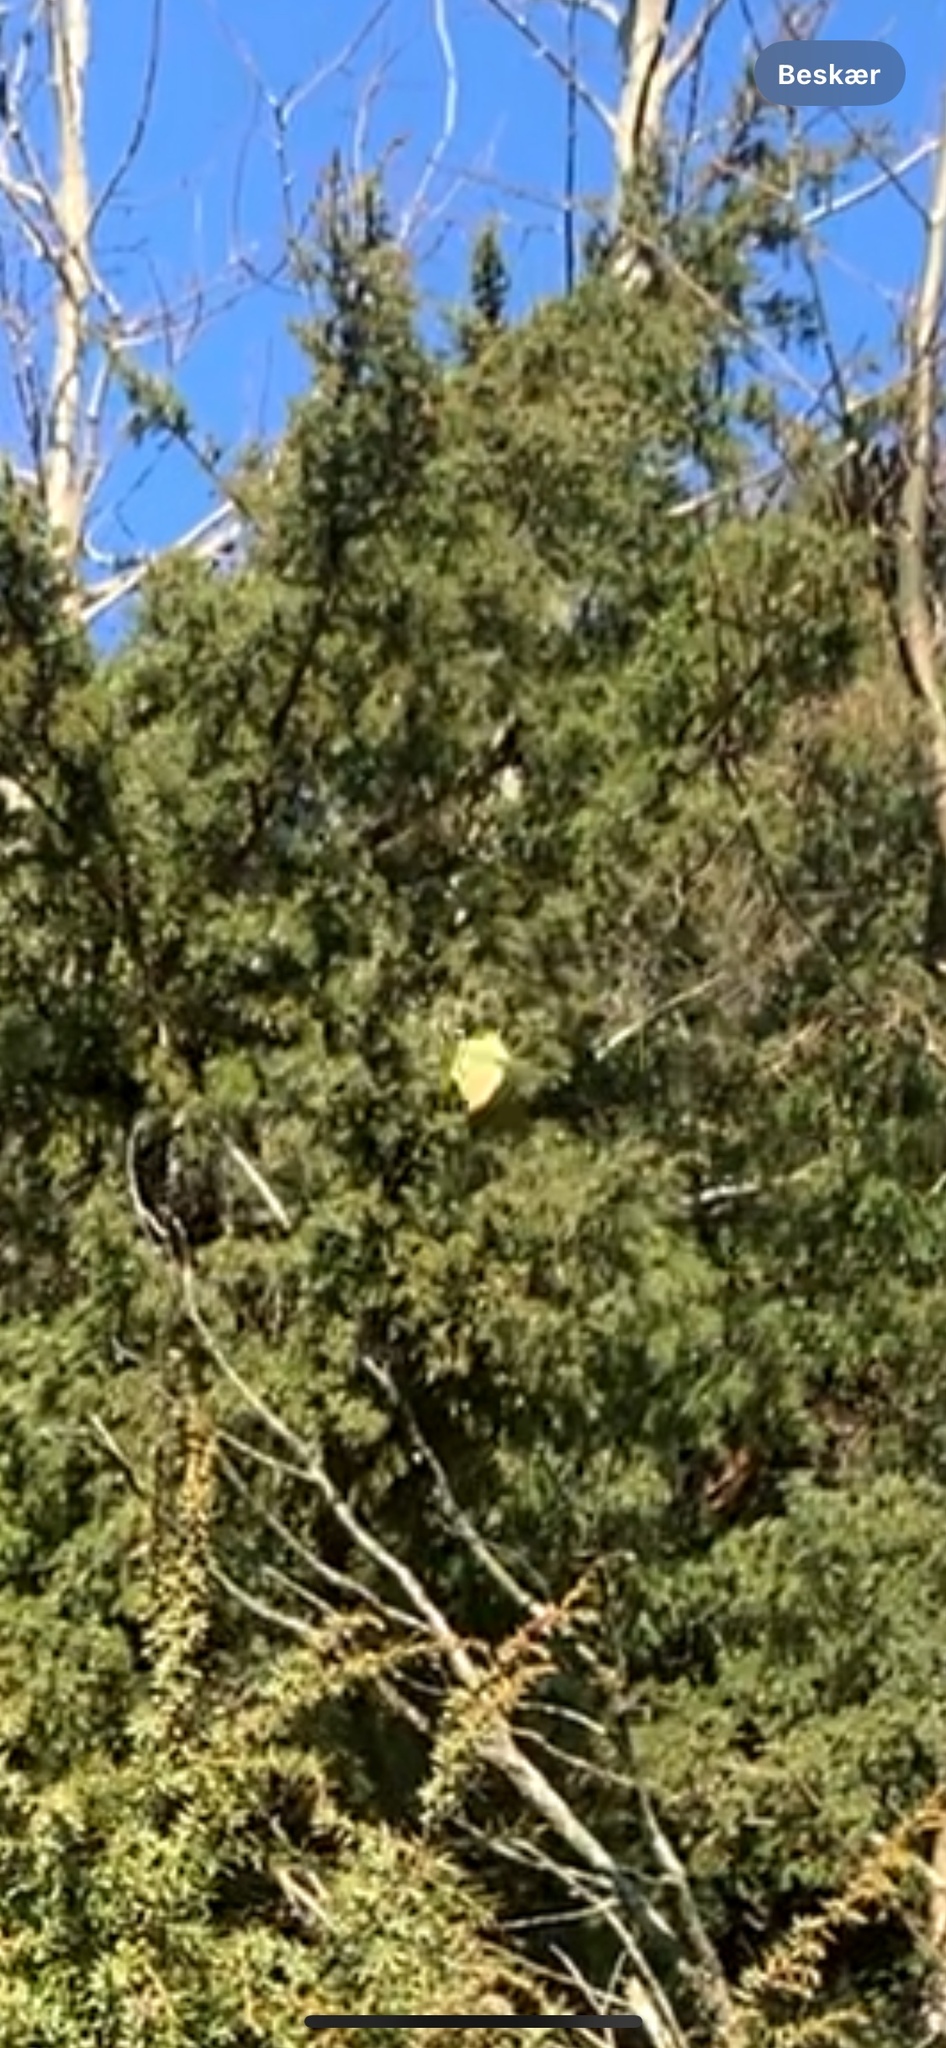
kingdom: Animalia
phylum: Arthropoda
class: Insecta
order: Lepidoptera
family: Pieridae
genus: Gonepteryx
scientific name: Gonepteryx rhamni
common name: Brimstone
